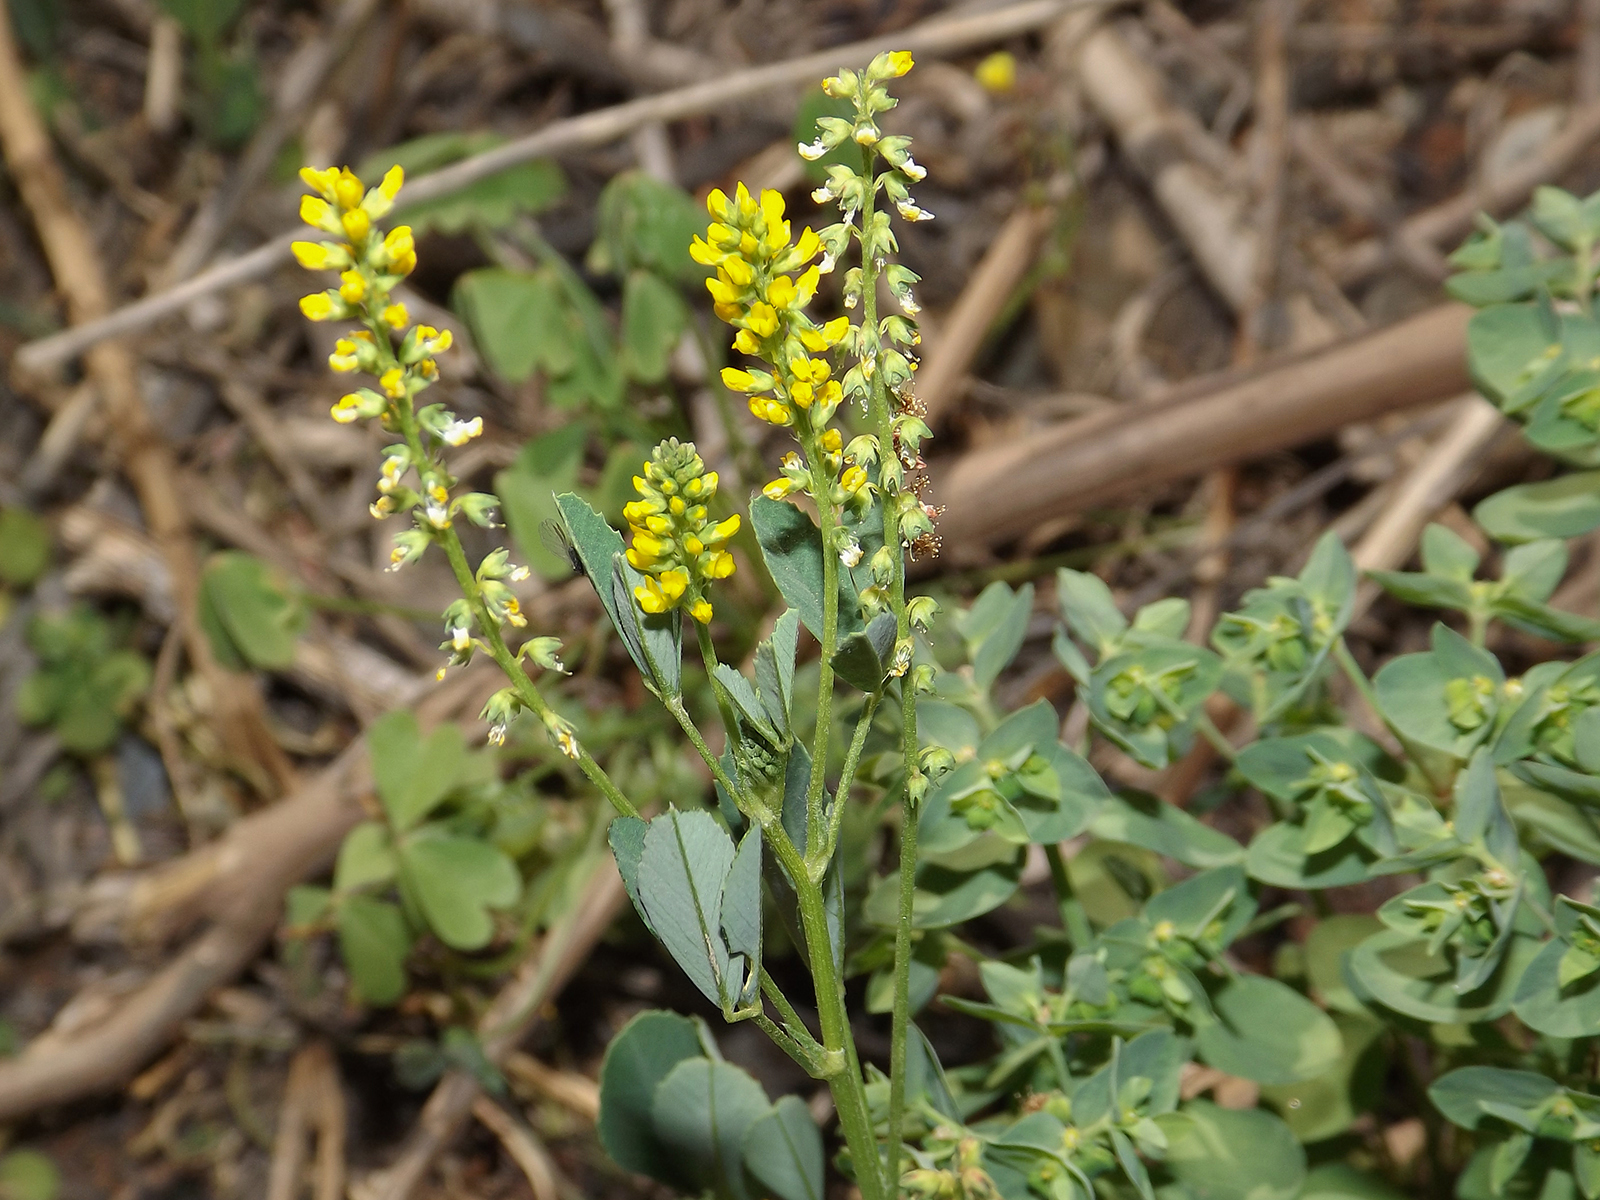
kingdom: Plantae
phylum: Tracheophyta
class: Magnoliopsida
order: Fabales
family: Fabaceae
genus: Melilotus
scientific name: Melilotus indicus
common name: Small melilot
